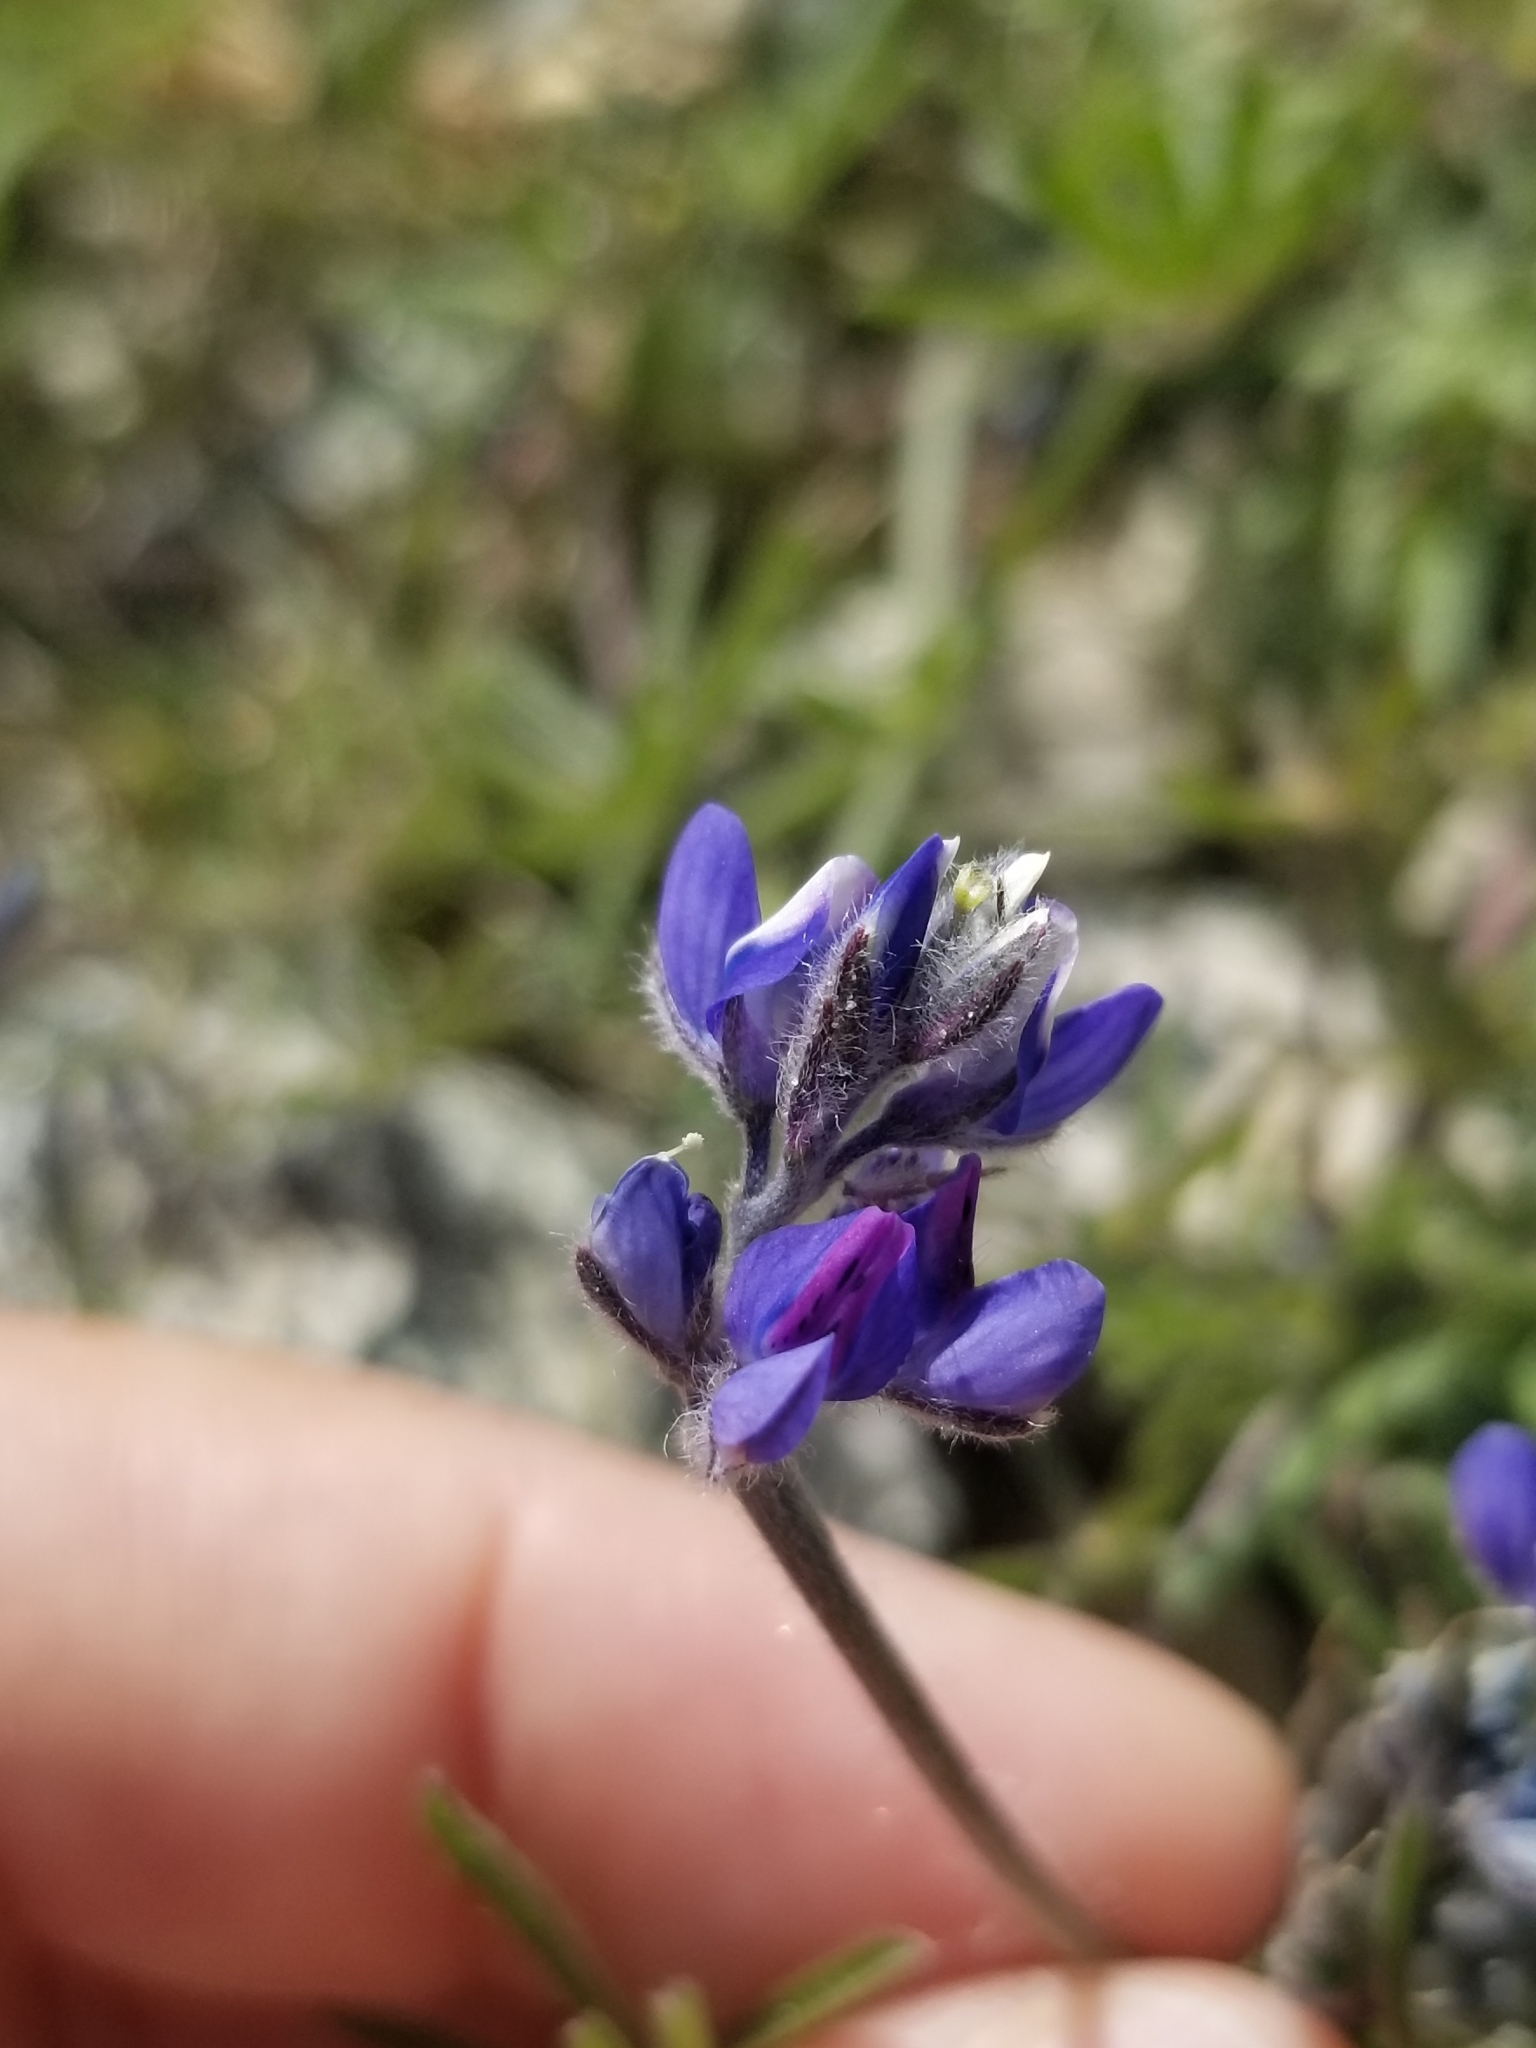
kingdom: Plantae
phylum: Tracheophyta
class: Magnoliopsida
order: Fabales
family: Fabaceae
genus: Lupinus
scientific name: Lupinus bicolor
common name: Miniature lupine
